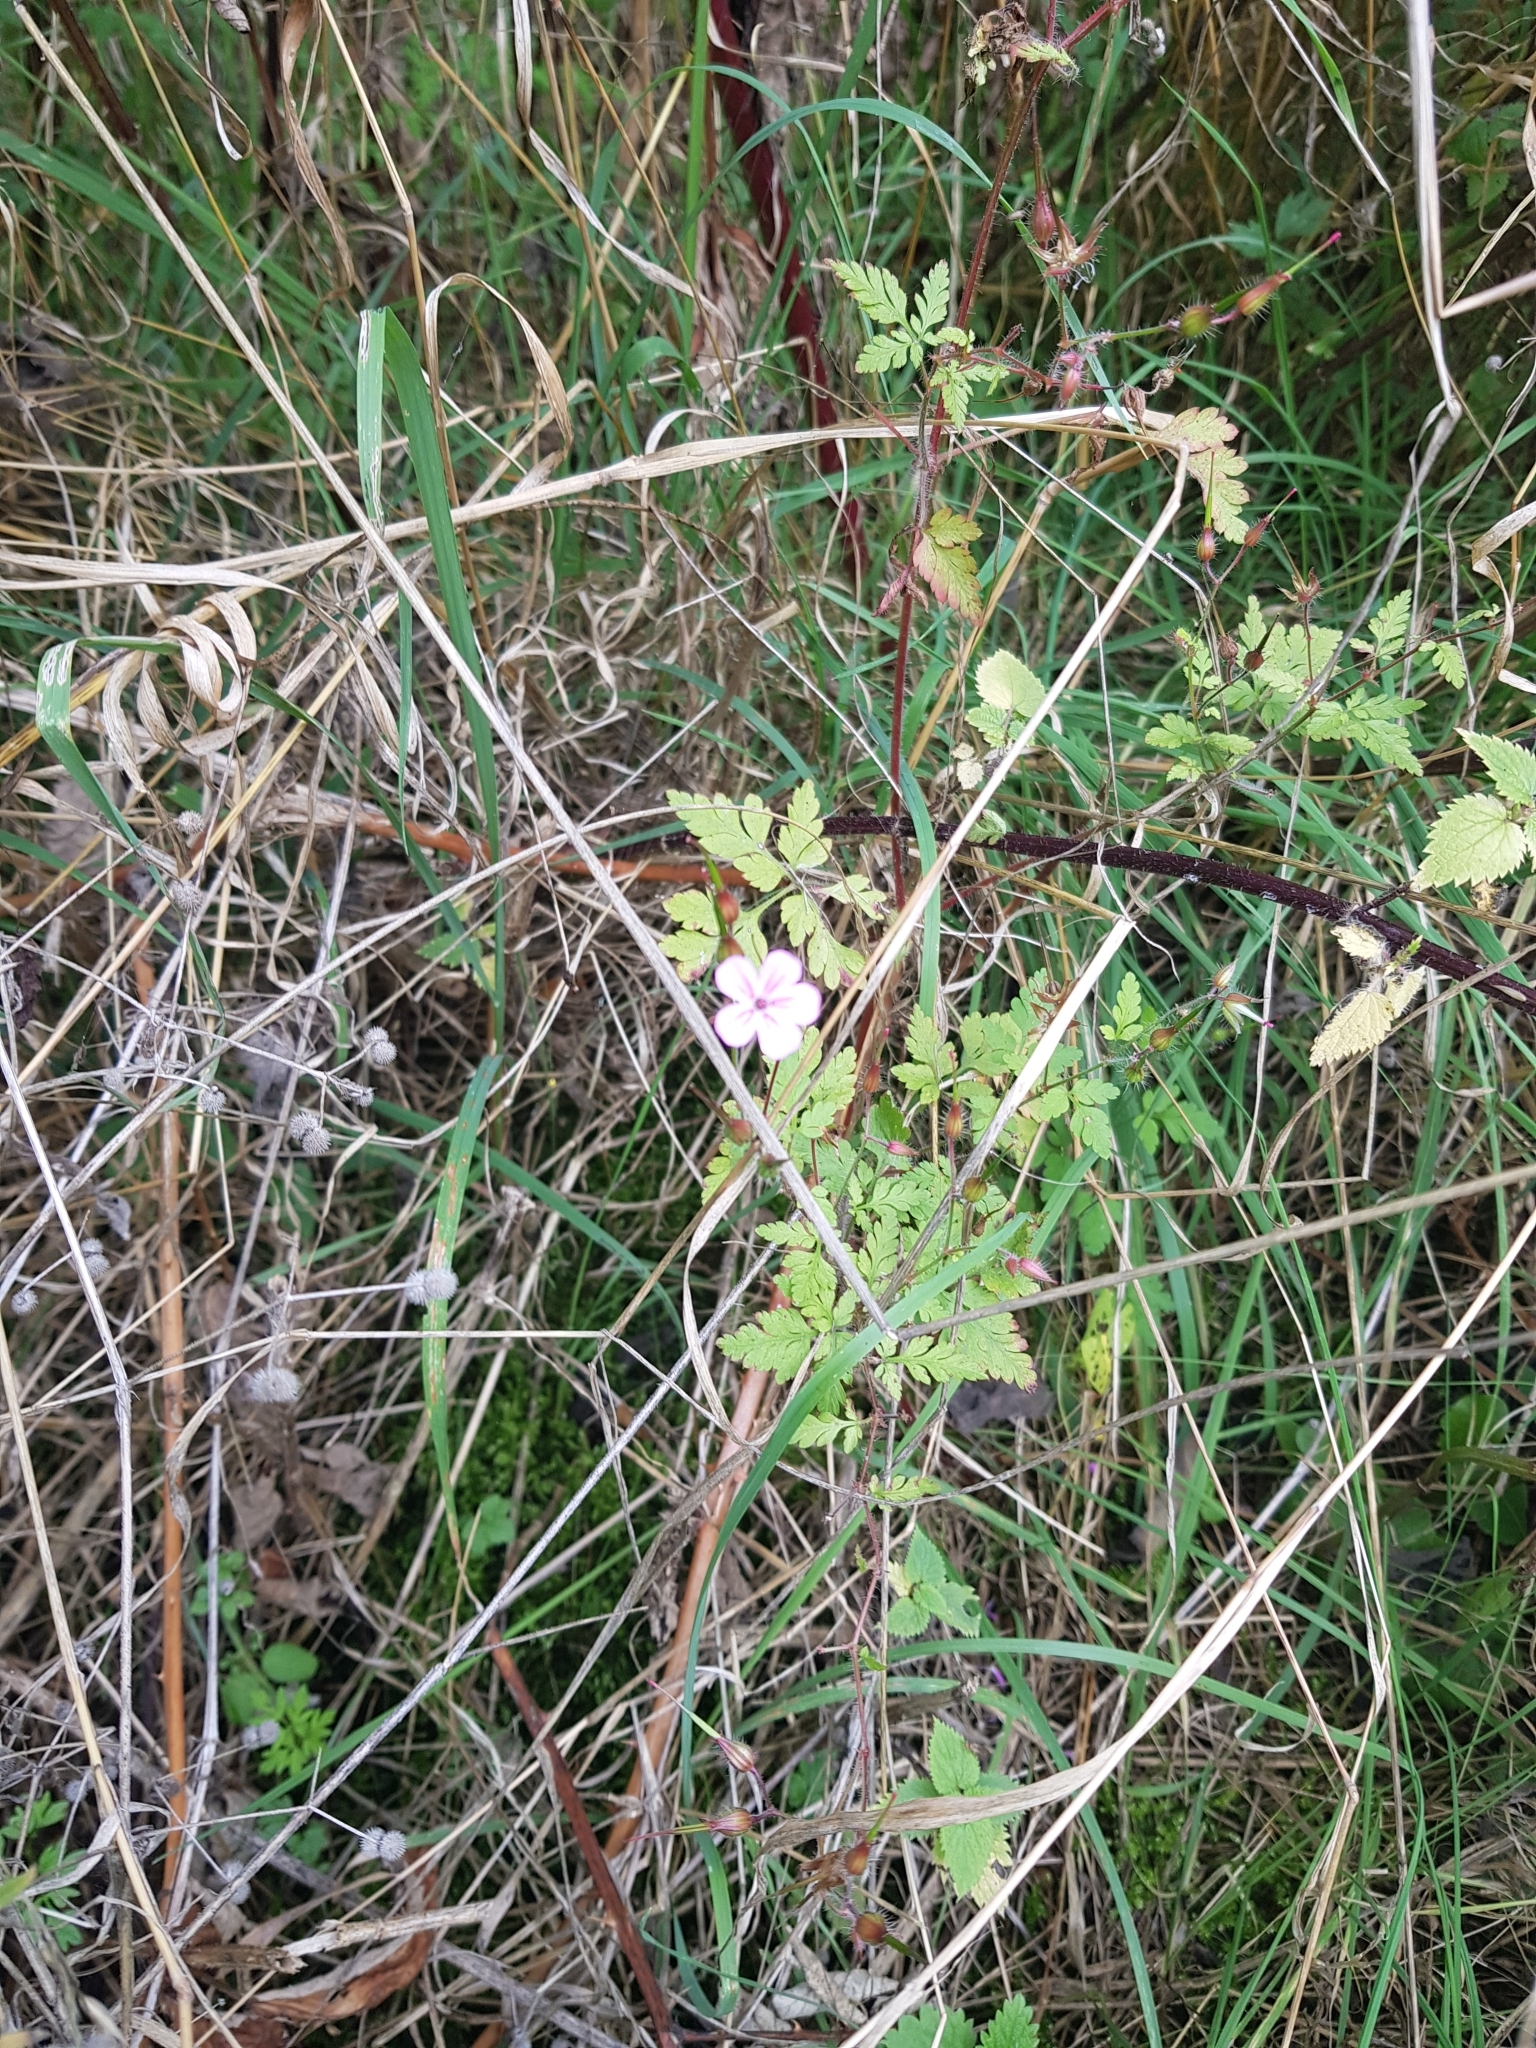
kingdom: Plantae
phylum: Tracheophyta
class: Magnoliopsida
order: Geraniales
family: Geraniaceae
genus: Geranium
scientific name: Geranium robertianum
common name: Herb-robert
